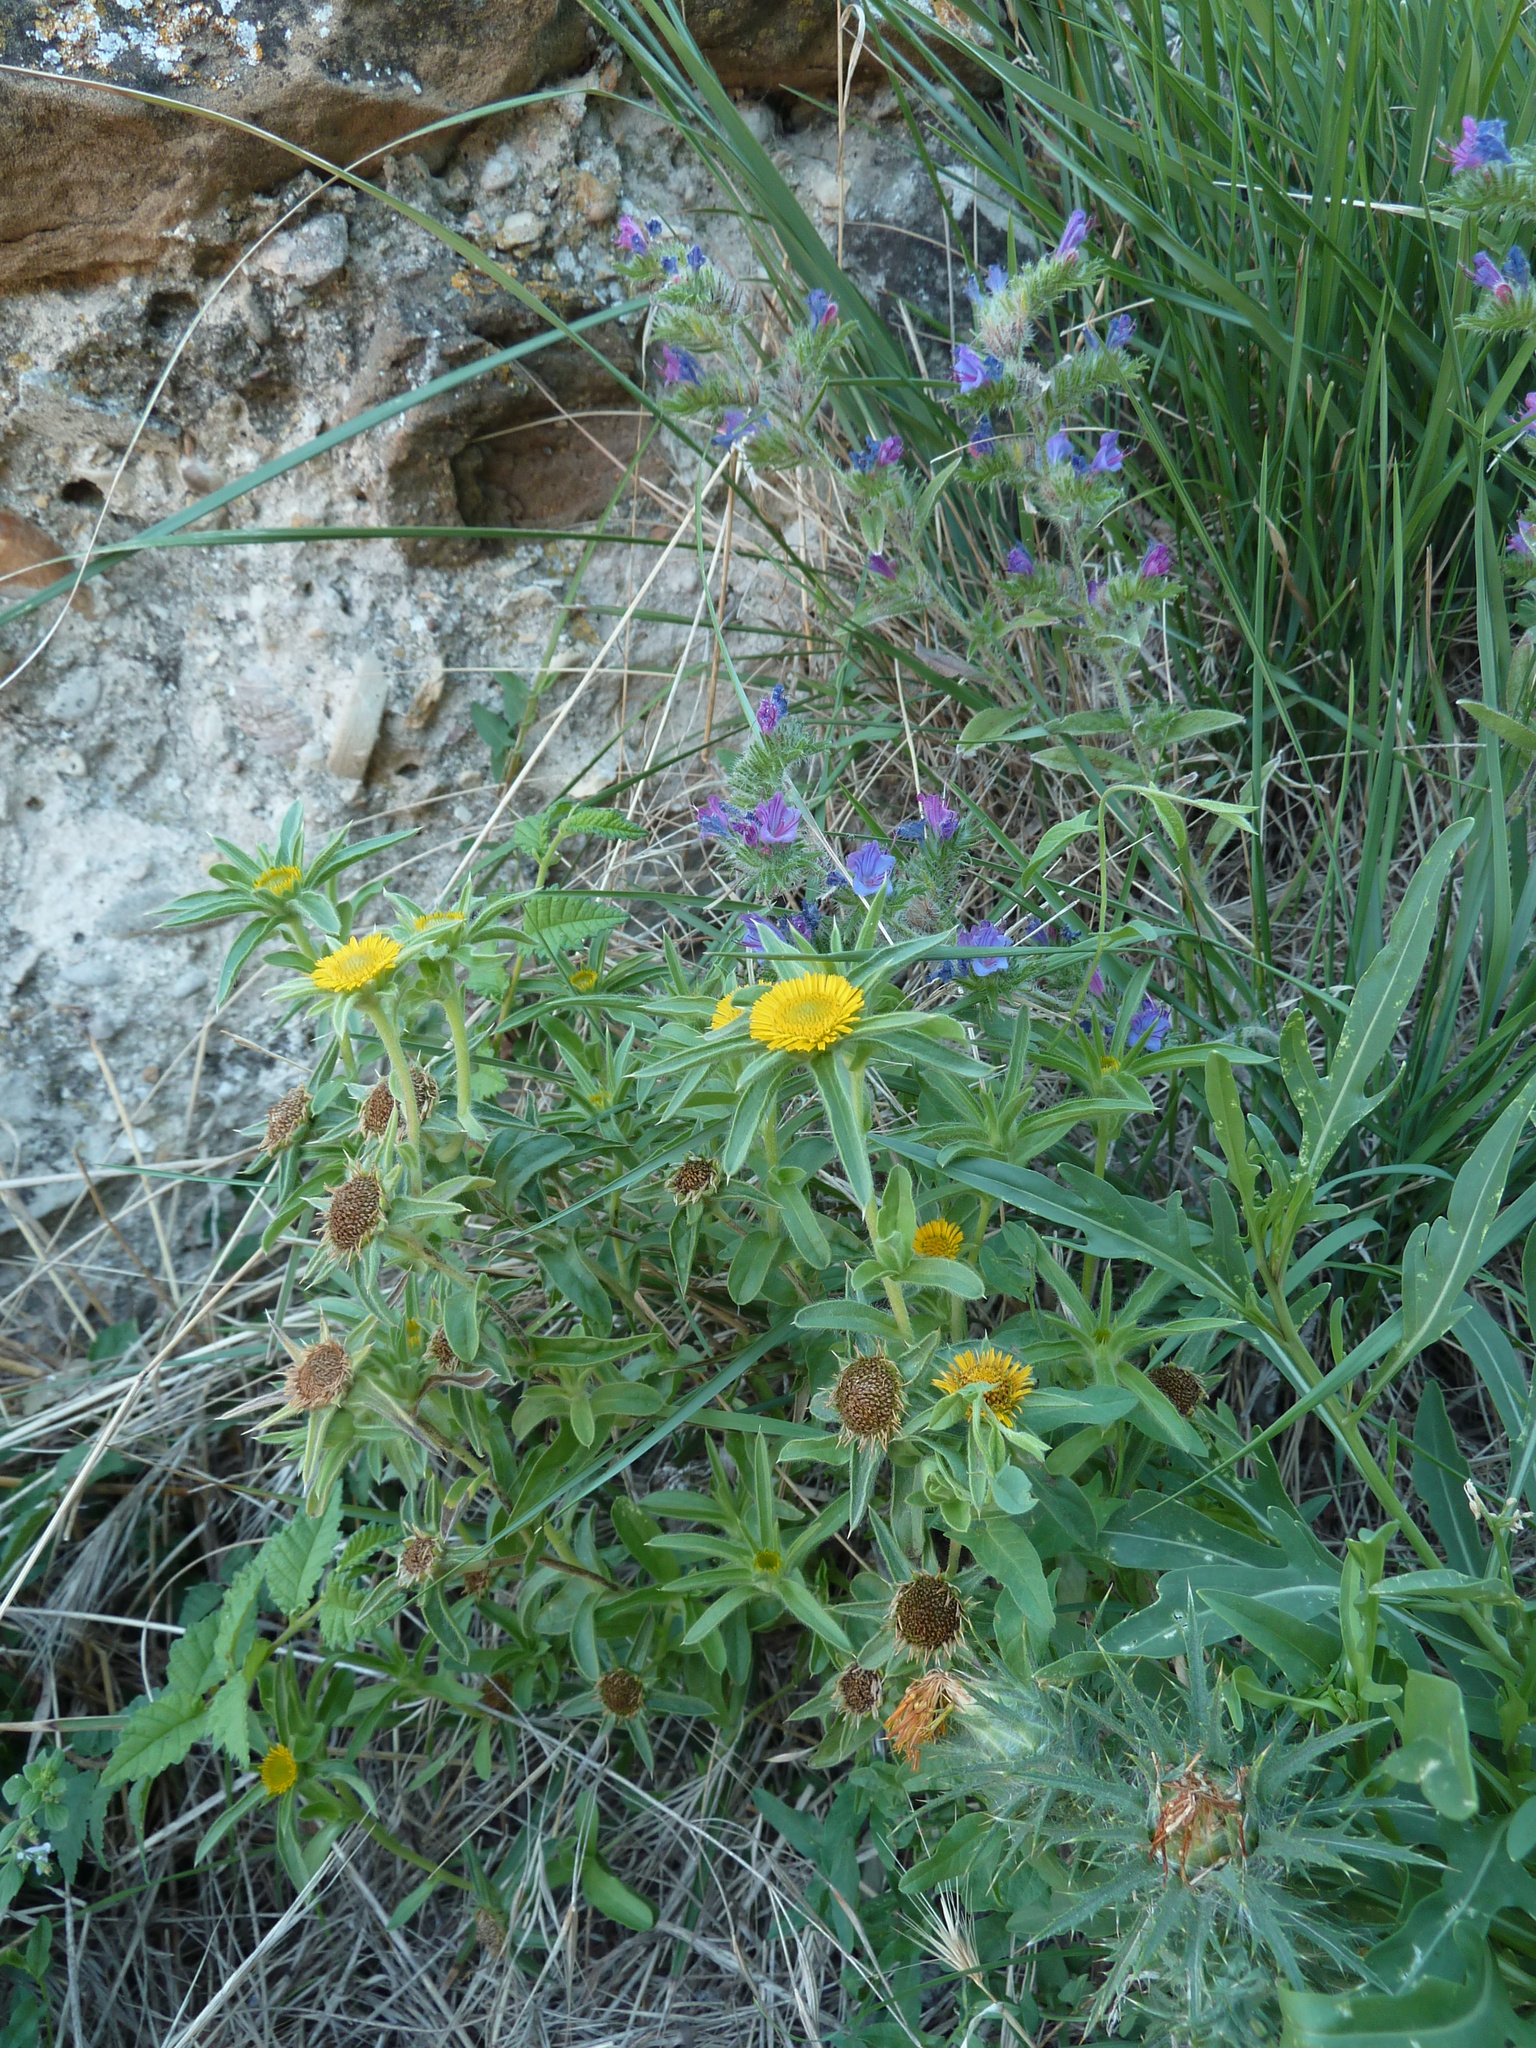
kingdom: Plantae
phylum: Tracheophyta
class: Magnoliopsida
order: Asterales
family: Asteraceae
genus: Pallenis
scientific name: Pallenis spinosa
